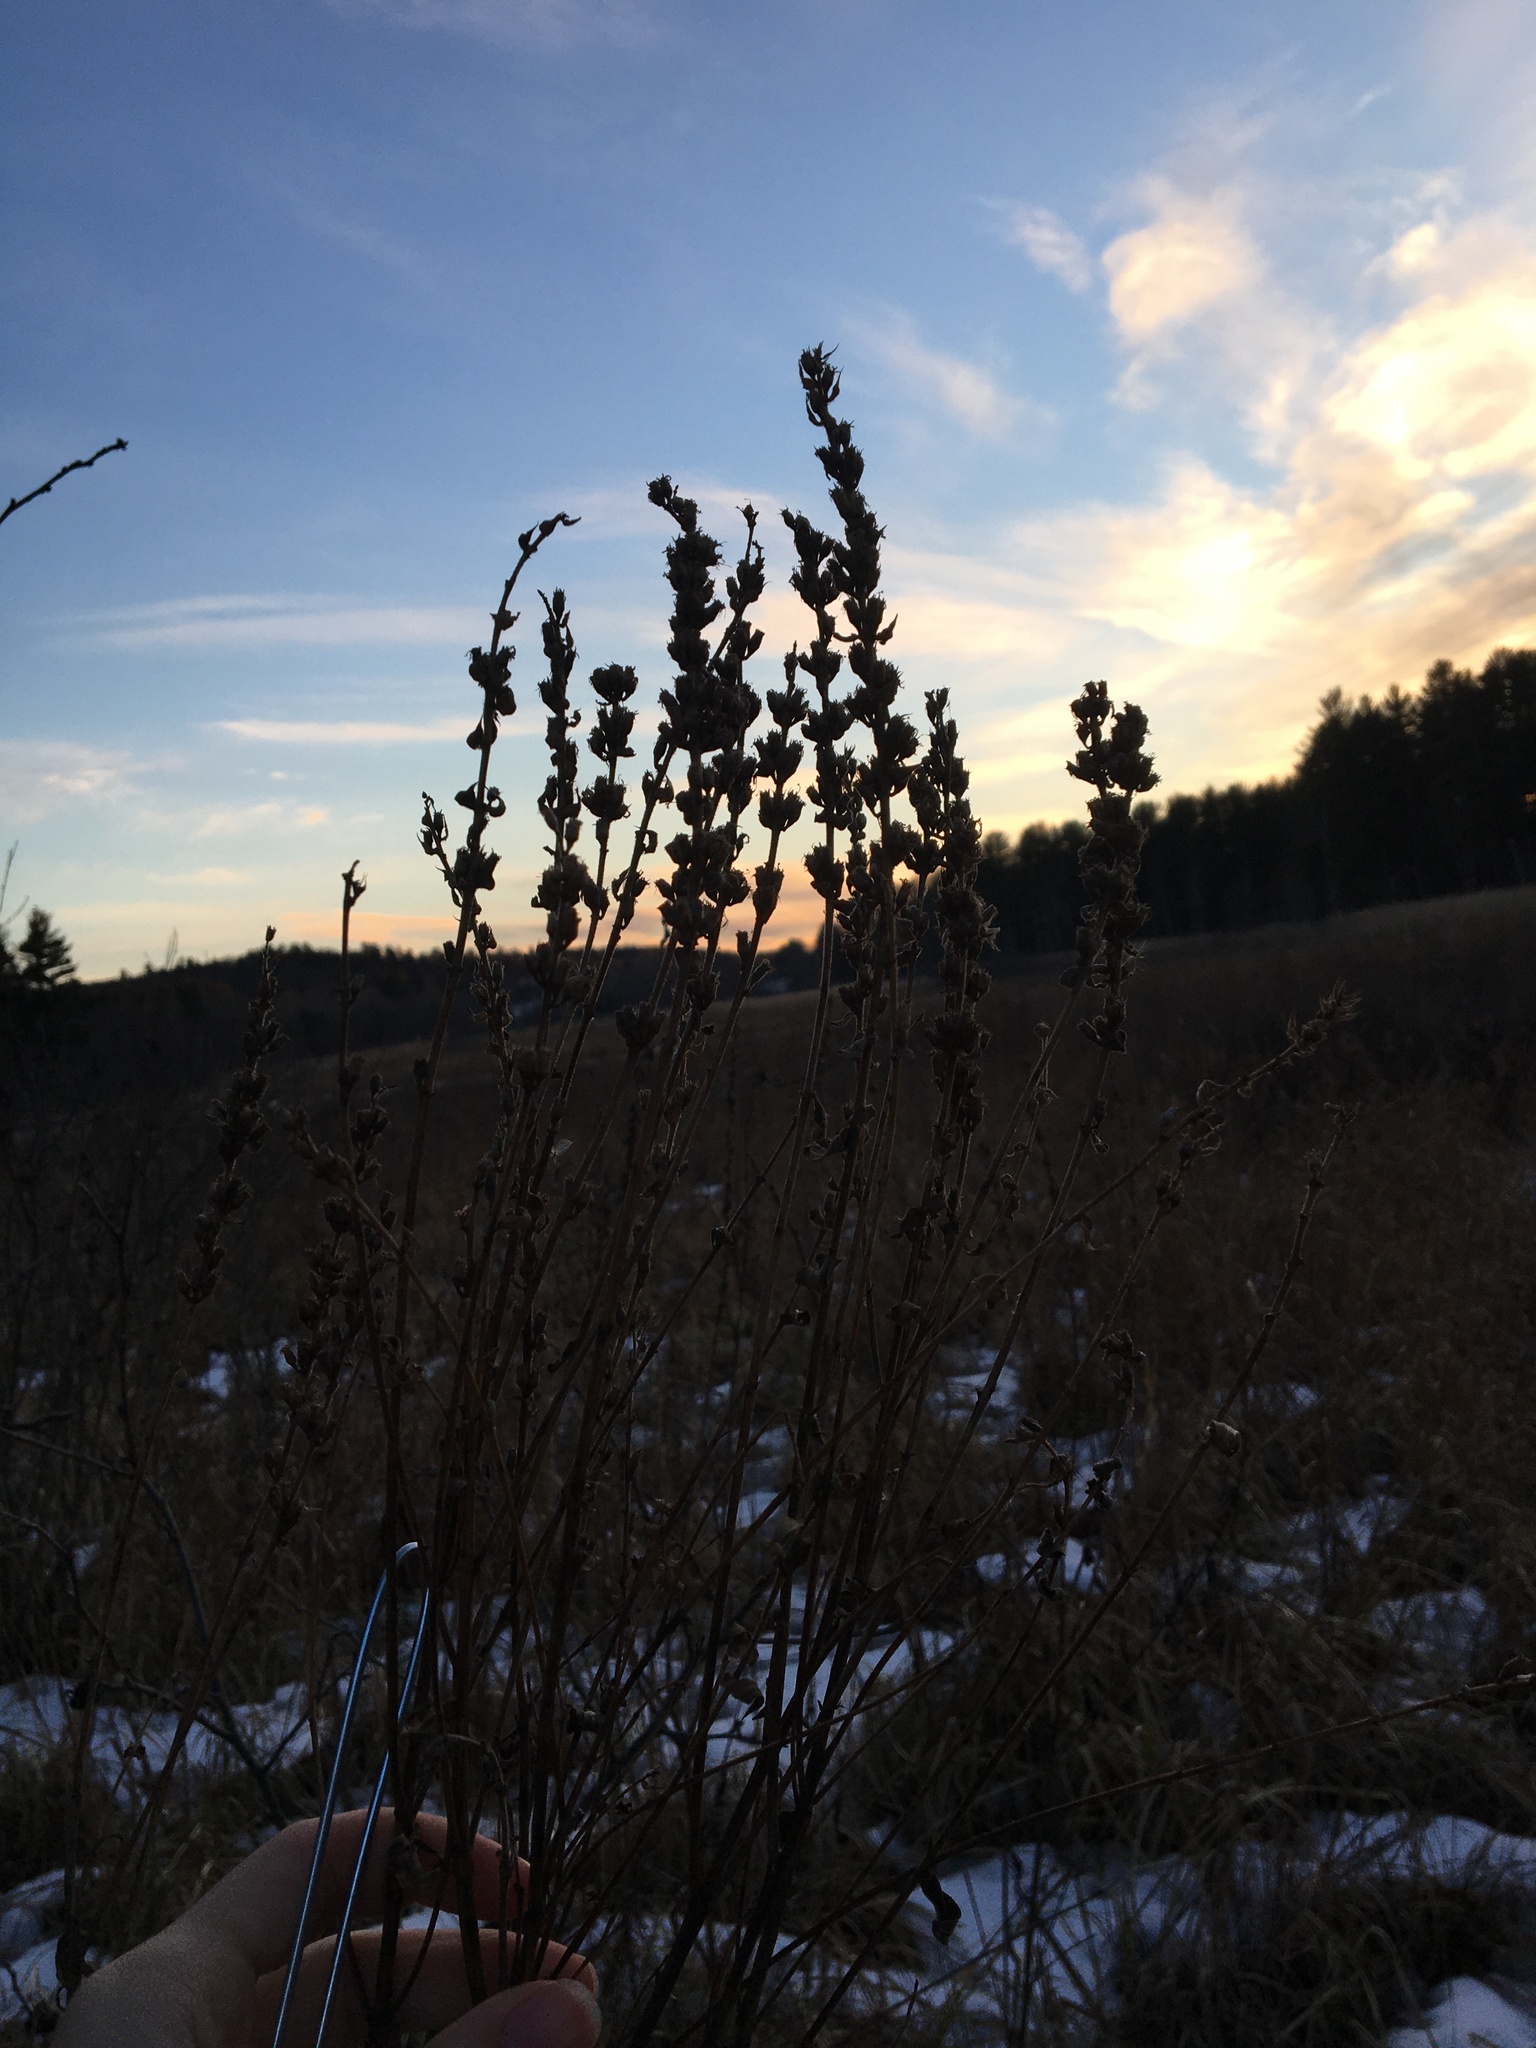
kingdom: Plantae
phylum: Tracheophyta
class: Magnoliopsida
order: Myrtales
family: Lythraceae
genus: Lythrum
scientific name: Lythrum salicaria
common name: Purple loosestrife
